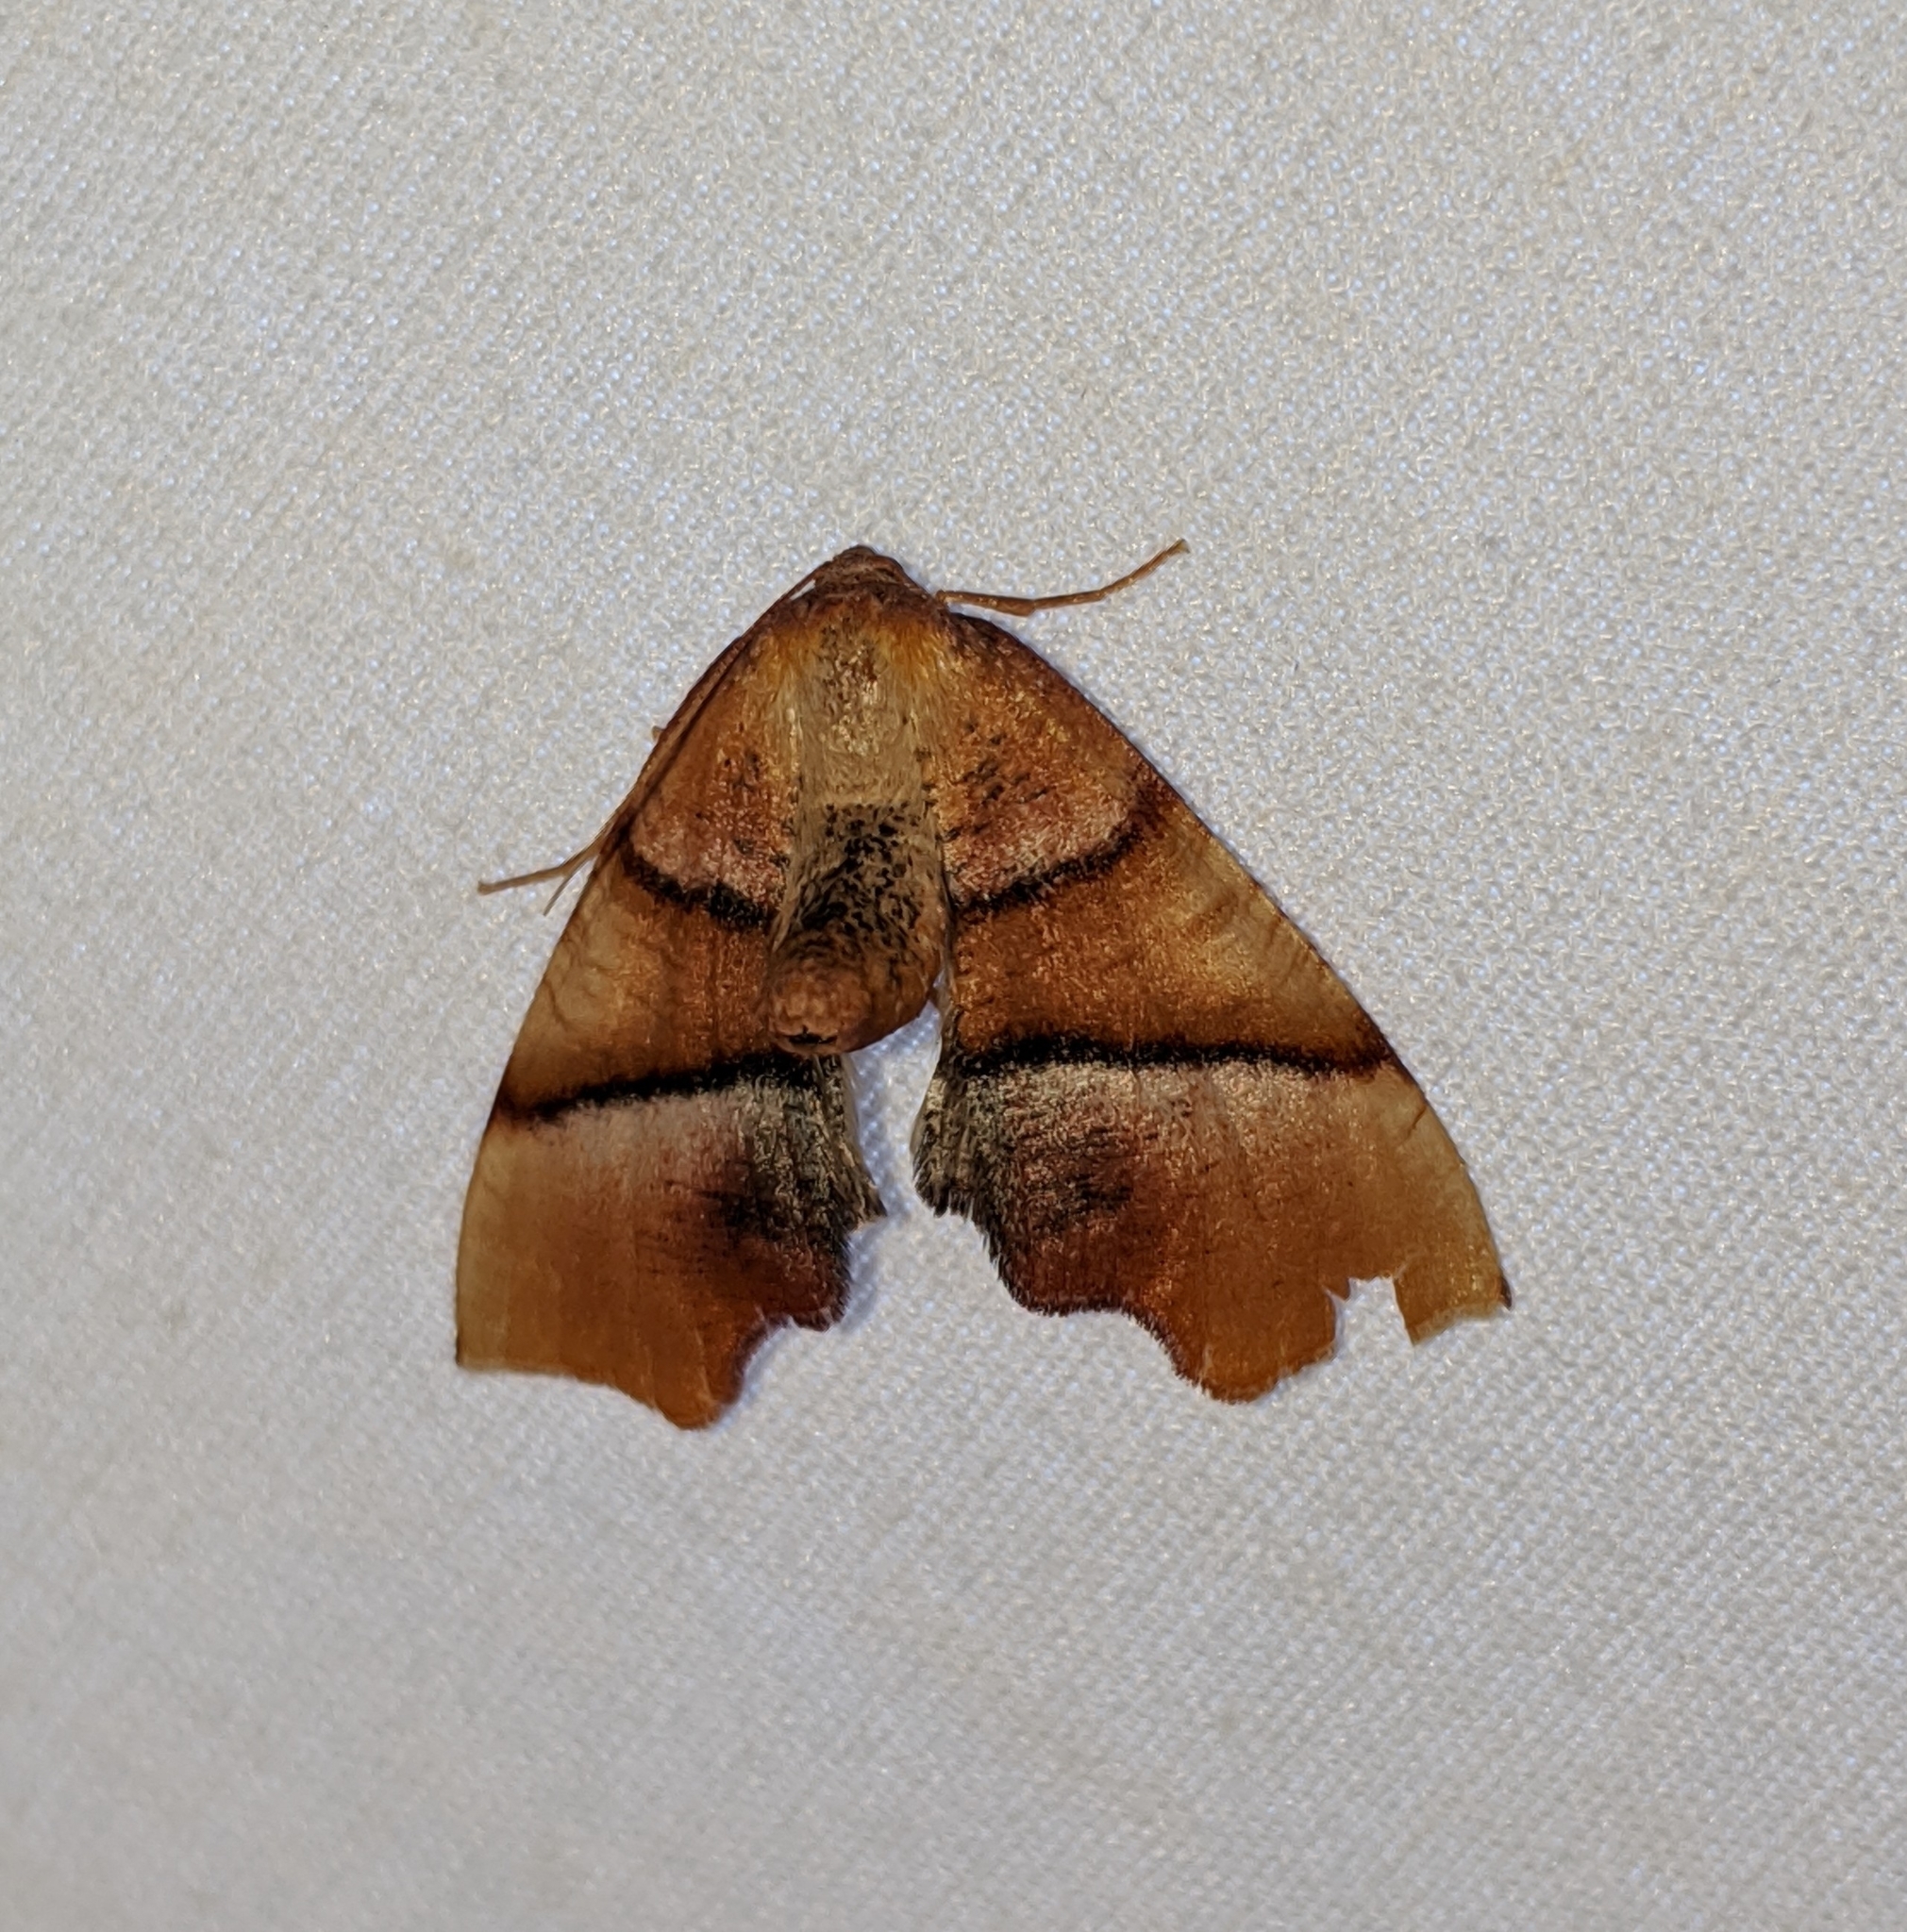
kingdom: Animalia
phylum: Arthropoda
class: Insecta
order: Lepidoptera
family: Geometridae
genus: Plagodis
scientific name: Plagodis phlogosaria
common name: Straight-lined plagodis
